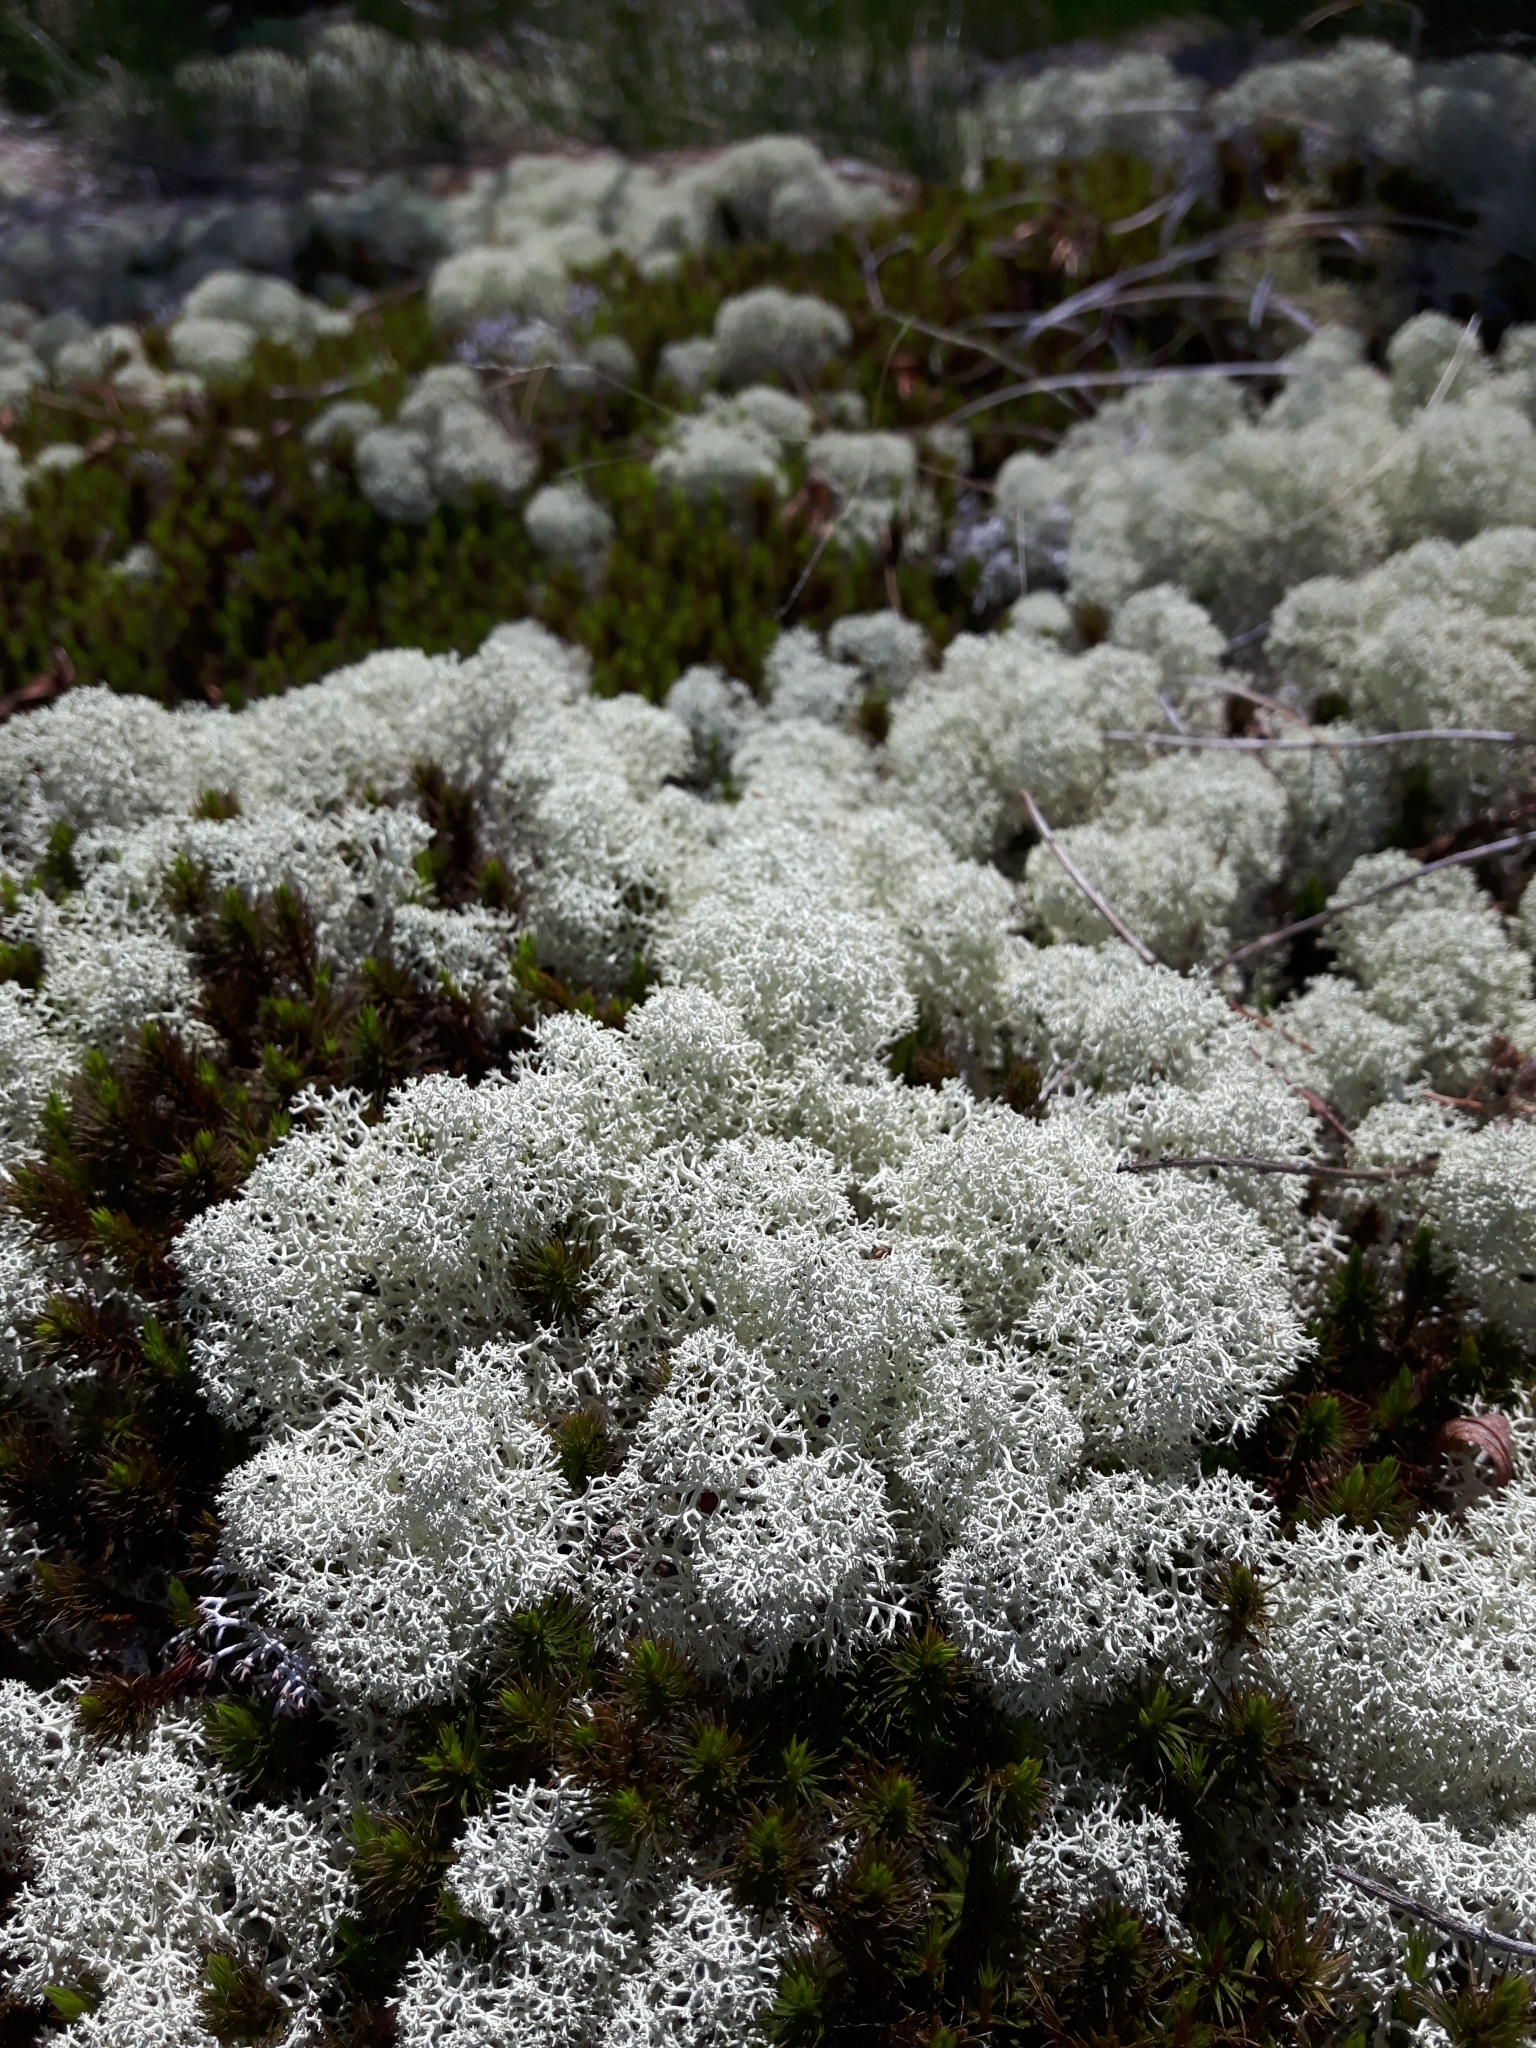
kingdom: Fungi
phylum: Ascomycota
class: Lecanoromycetes
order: Lecanorales
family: Cladoniaceae
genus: Cladonia
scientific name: Cladonia rangiferina
